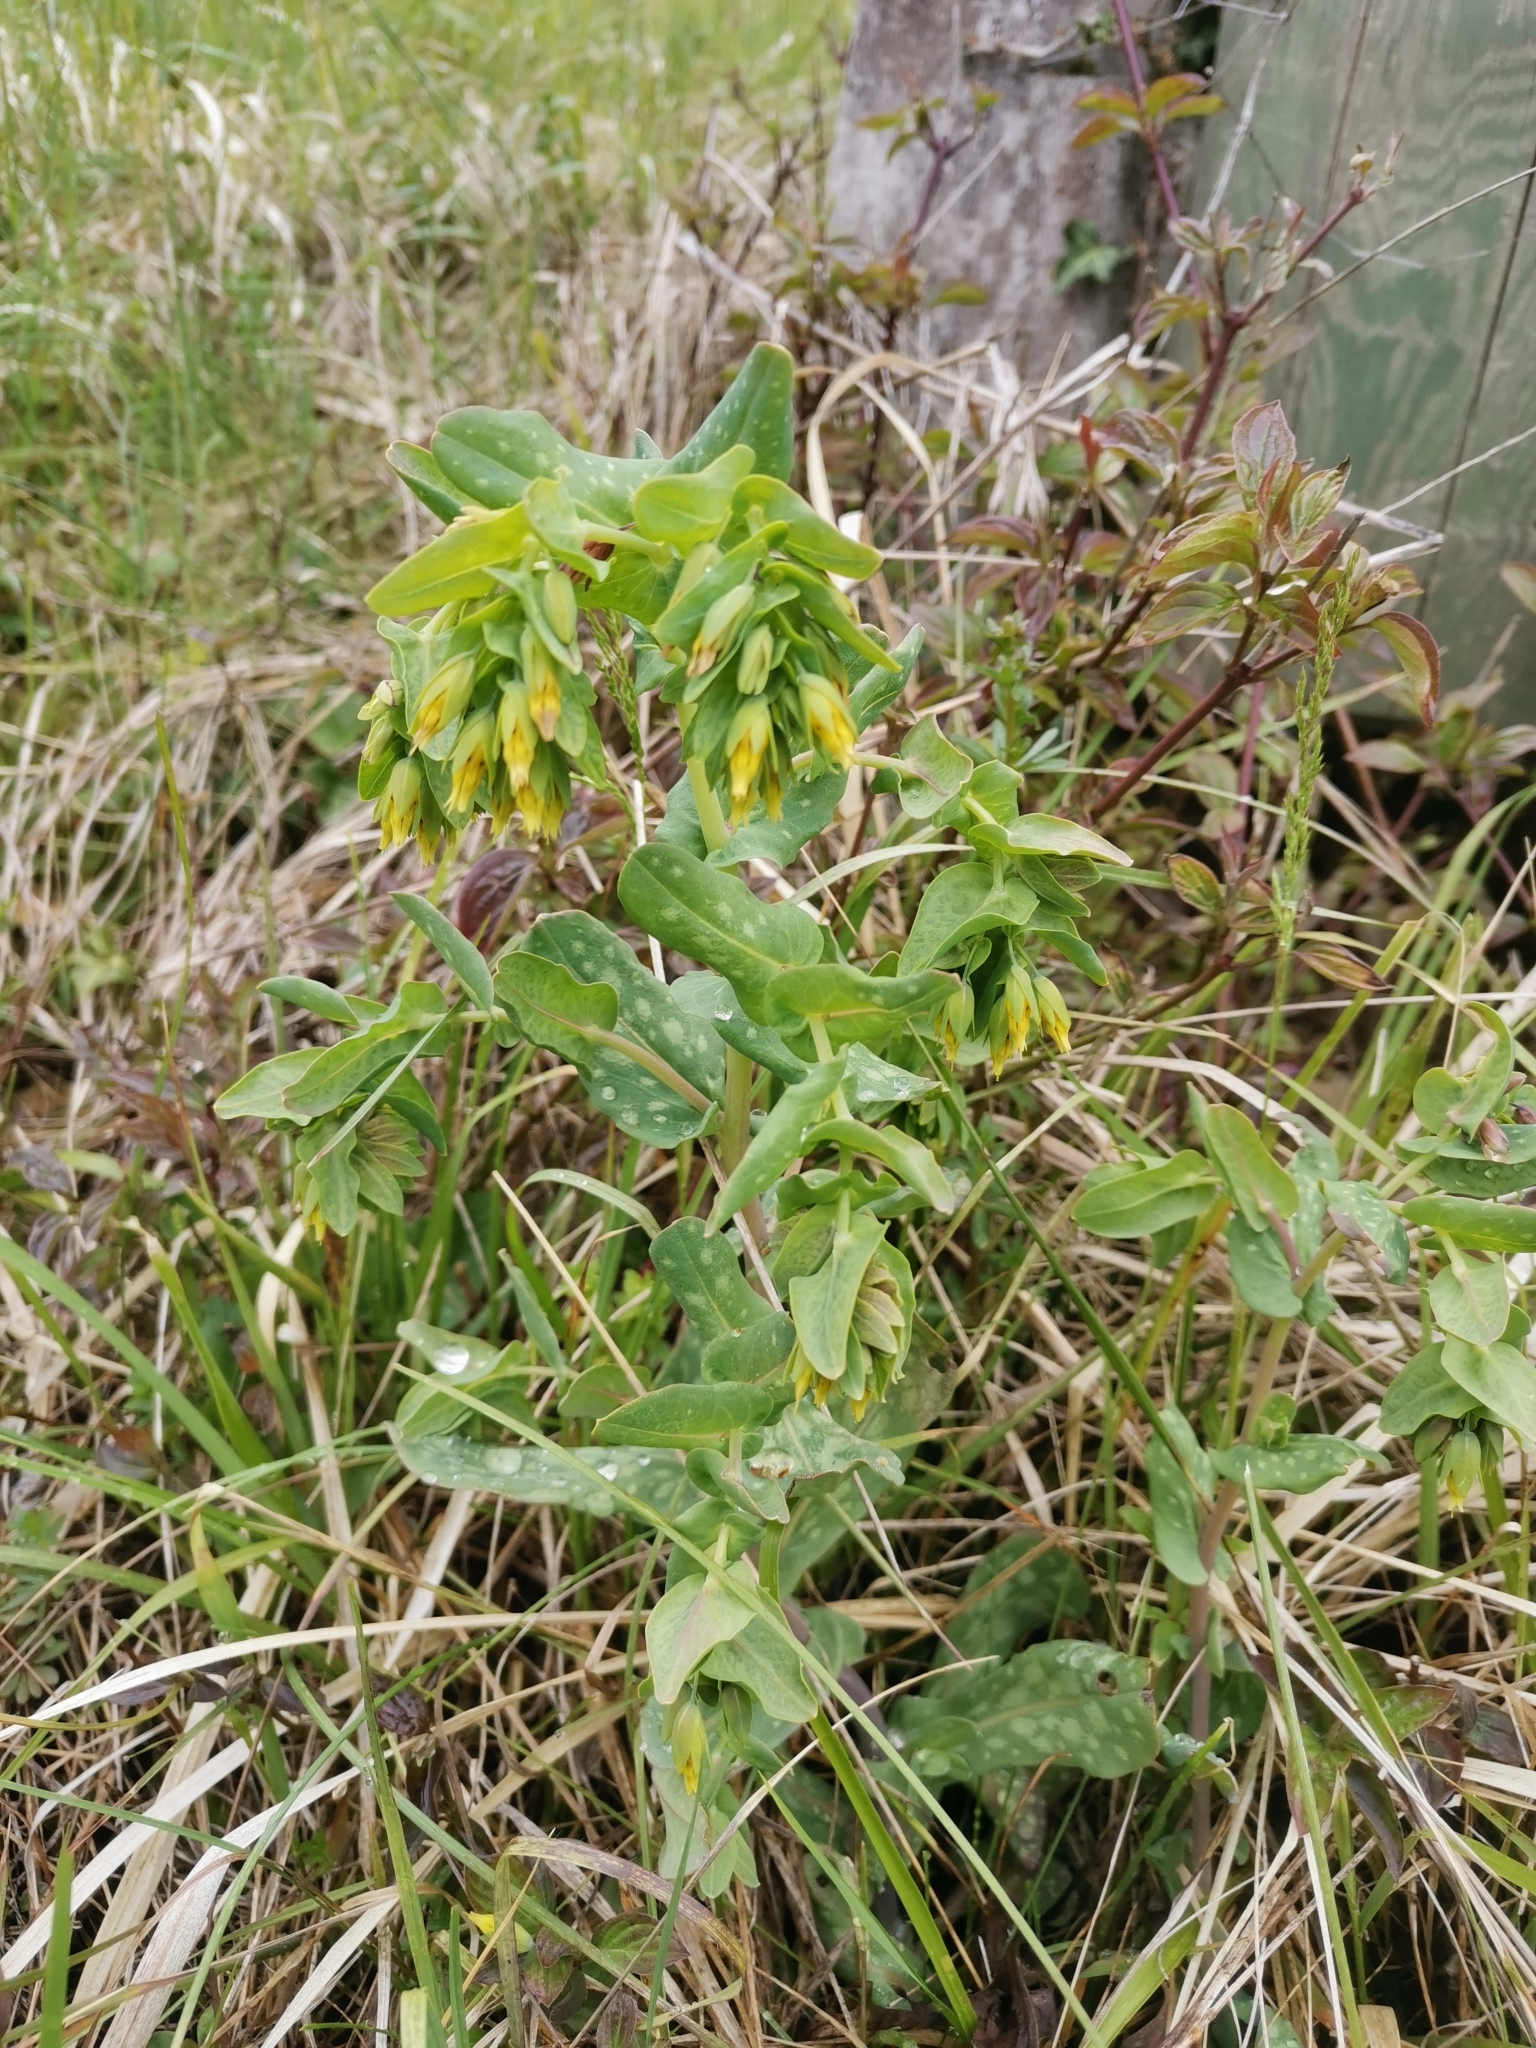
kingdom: Plantae
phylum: Tracheophyta
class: Magnoliopsida
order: Boraginales
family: Boraginaceae
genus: Cerinthe
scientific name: Cerinthe minor
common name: Lesser honeywort
